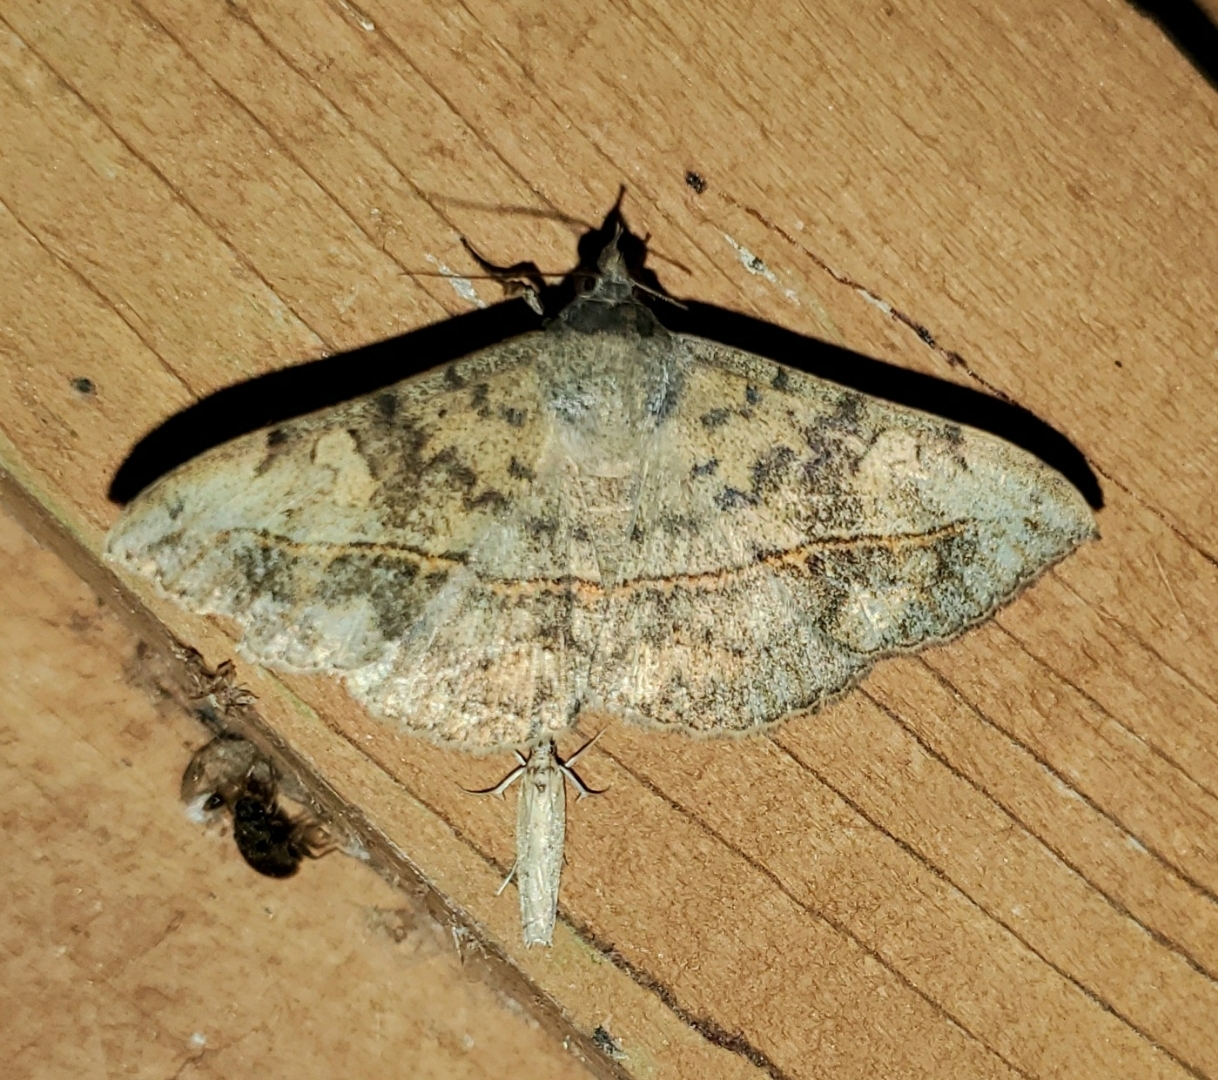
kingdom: Animalia
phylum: Arthropoda
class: Insecta
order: Lepidoptera
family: Erebidae
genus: Anticarsia
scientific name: Anticarsia gemmatalis
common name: Cutworm moth
